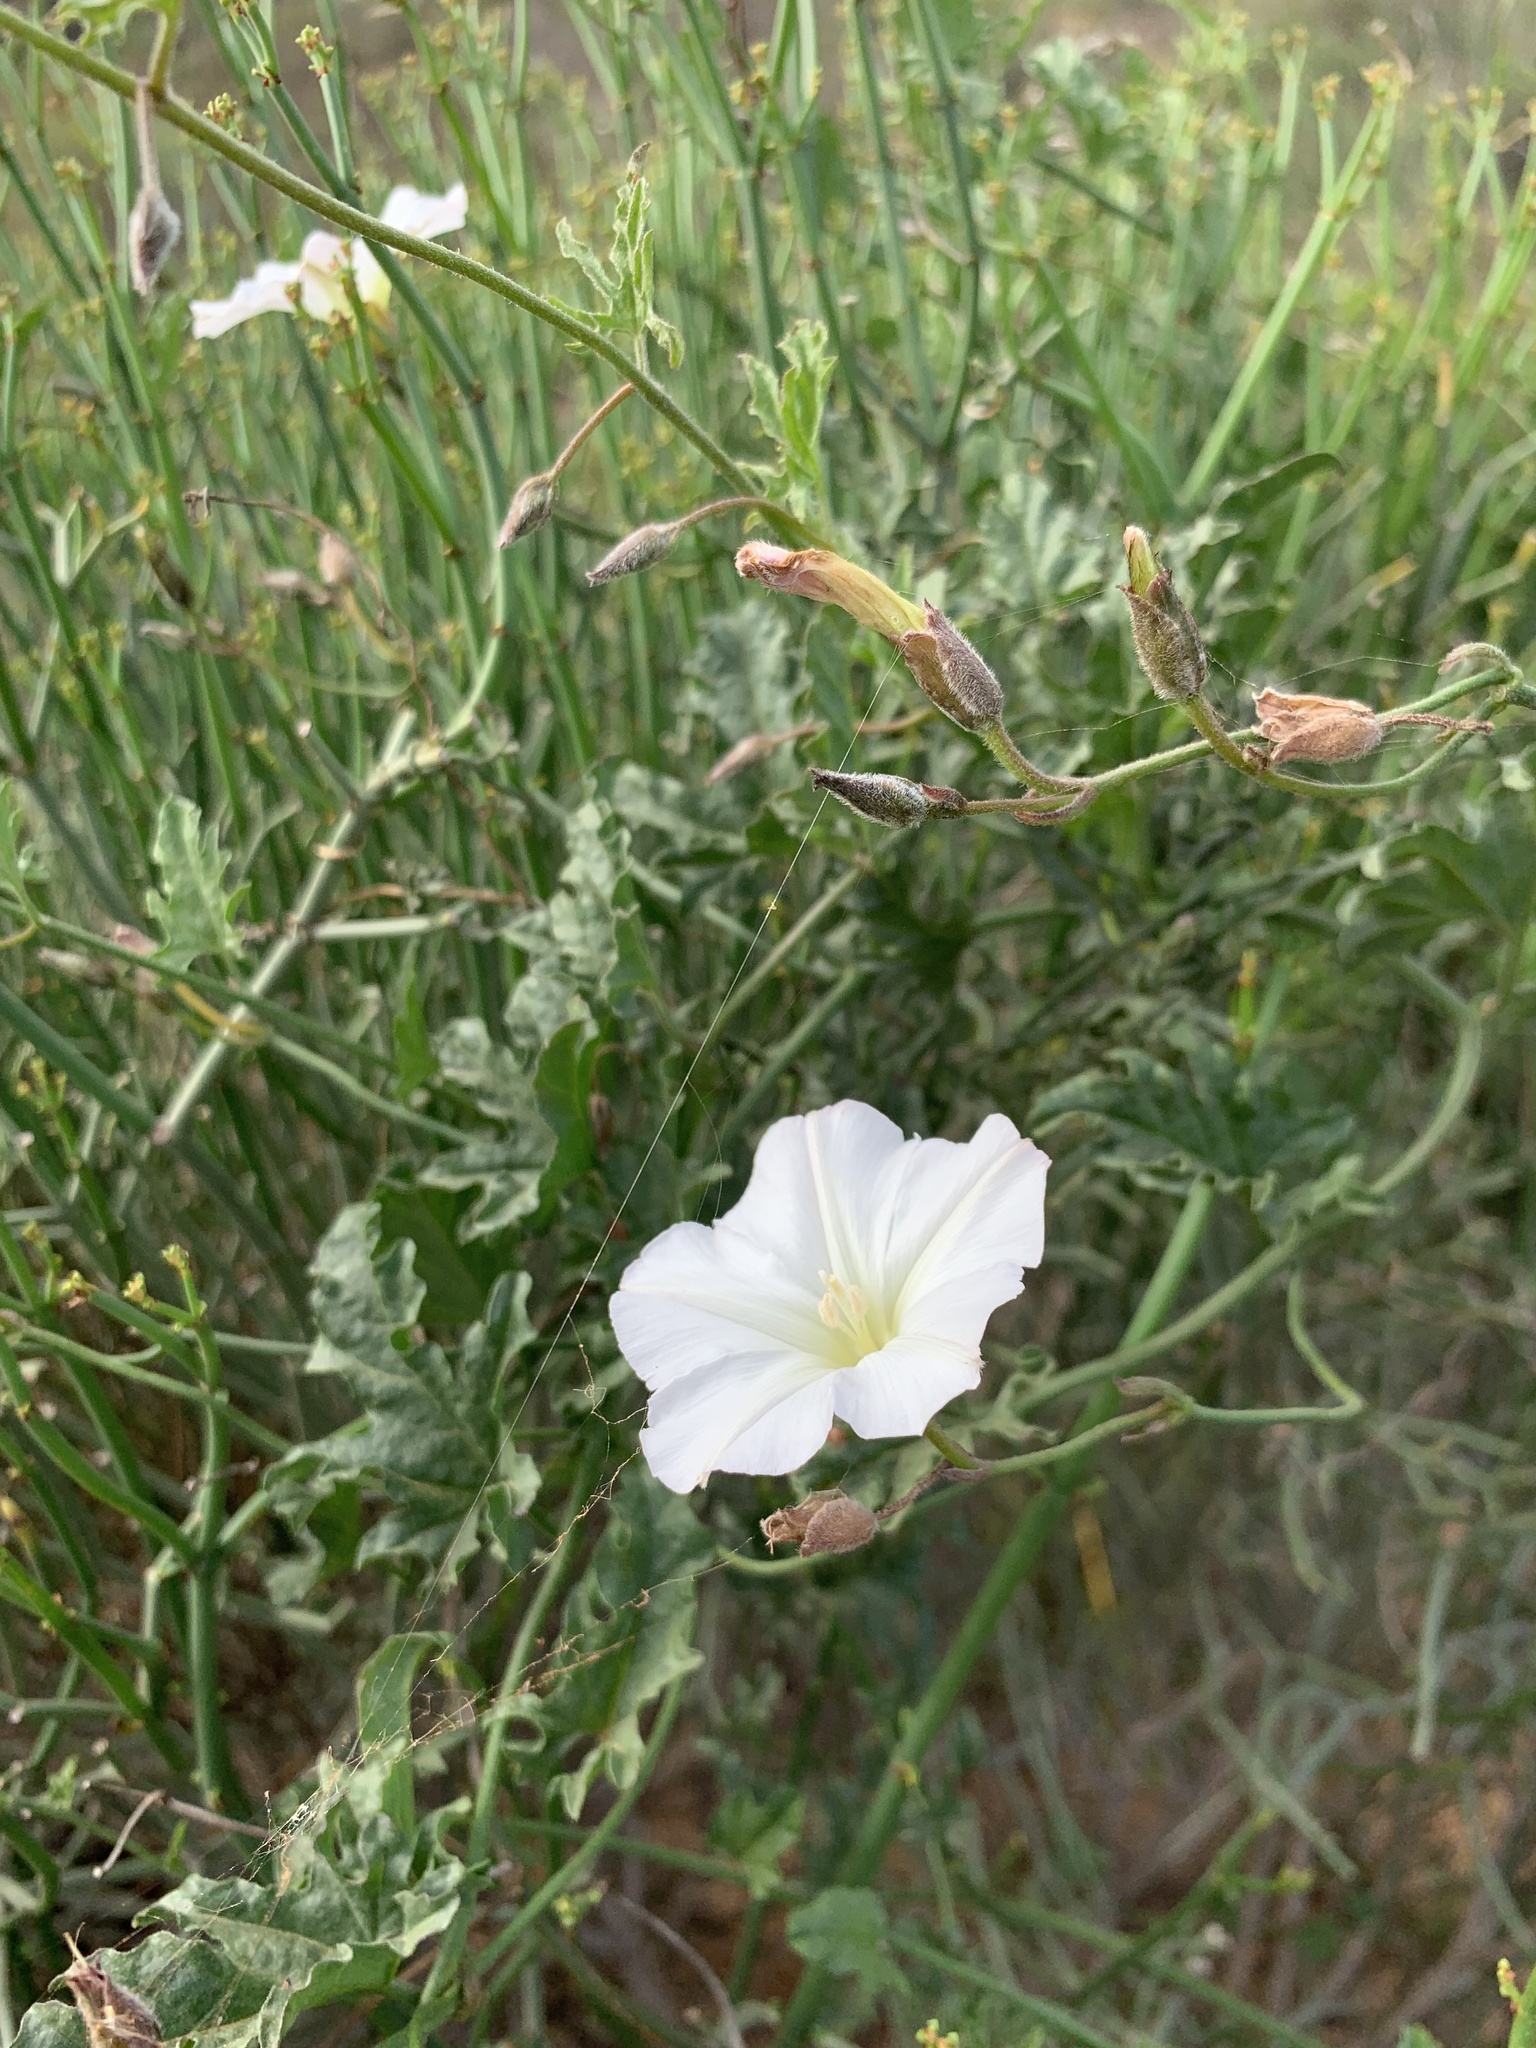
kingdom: Plantae
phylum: Tracheophyta
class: Magnoliopsida
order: Solanales
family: Convolvulaceae
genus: Convolvulus
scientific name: Convolvulus capensis
